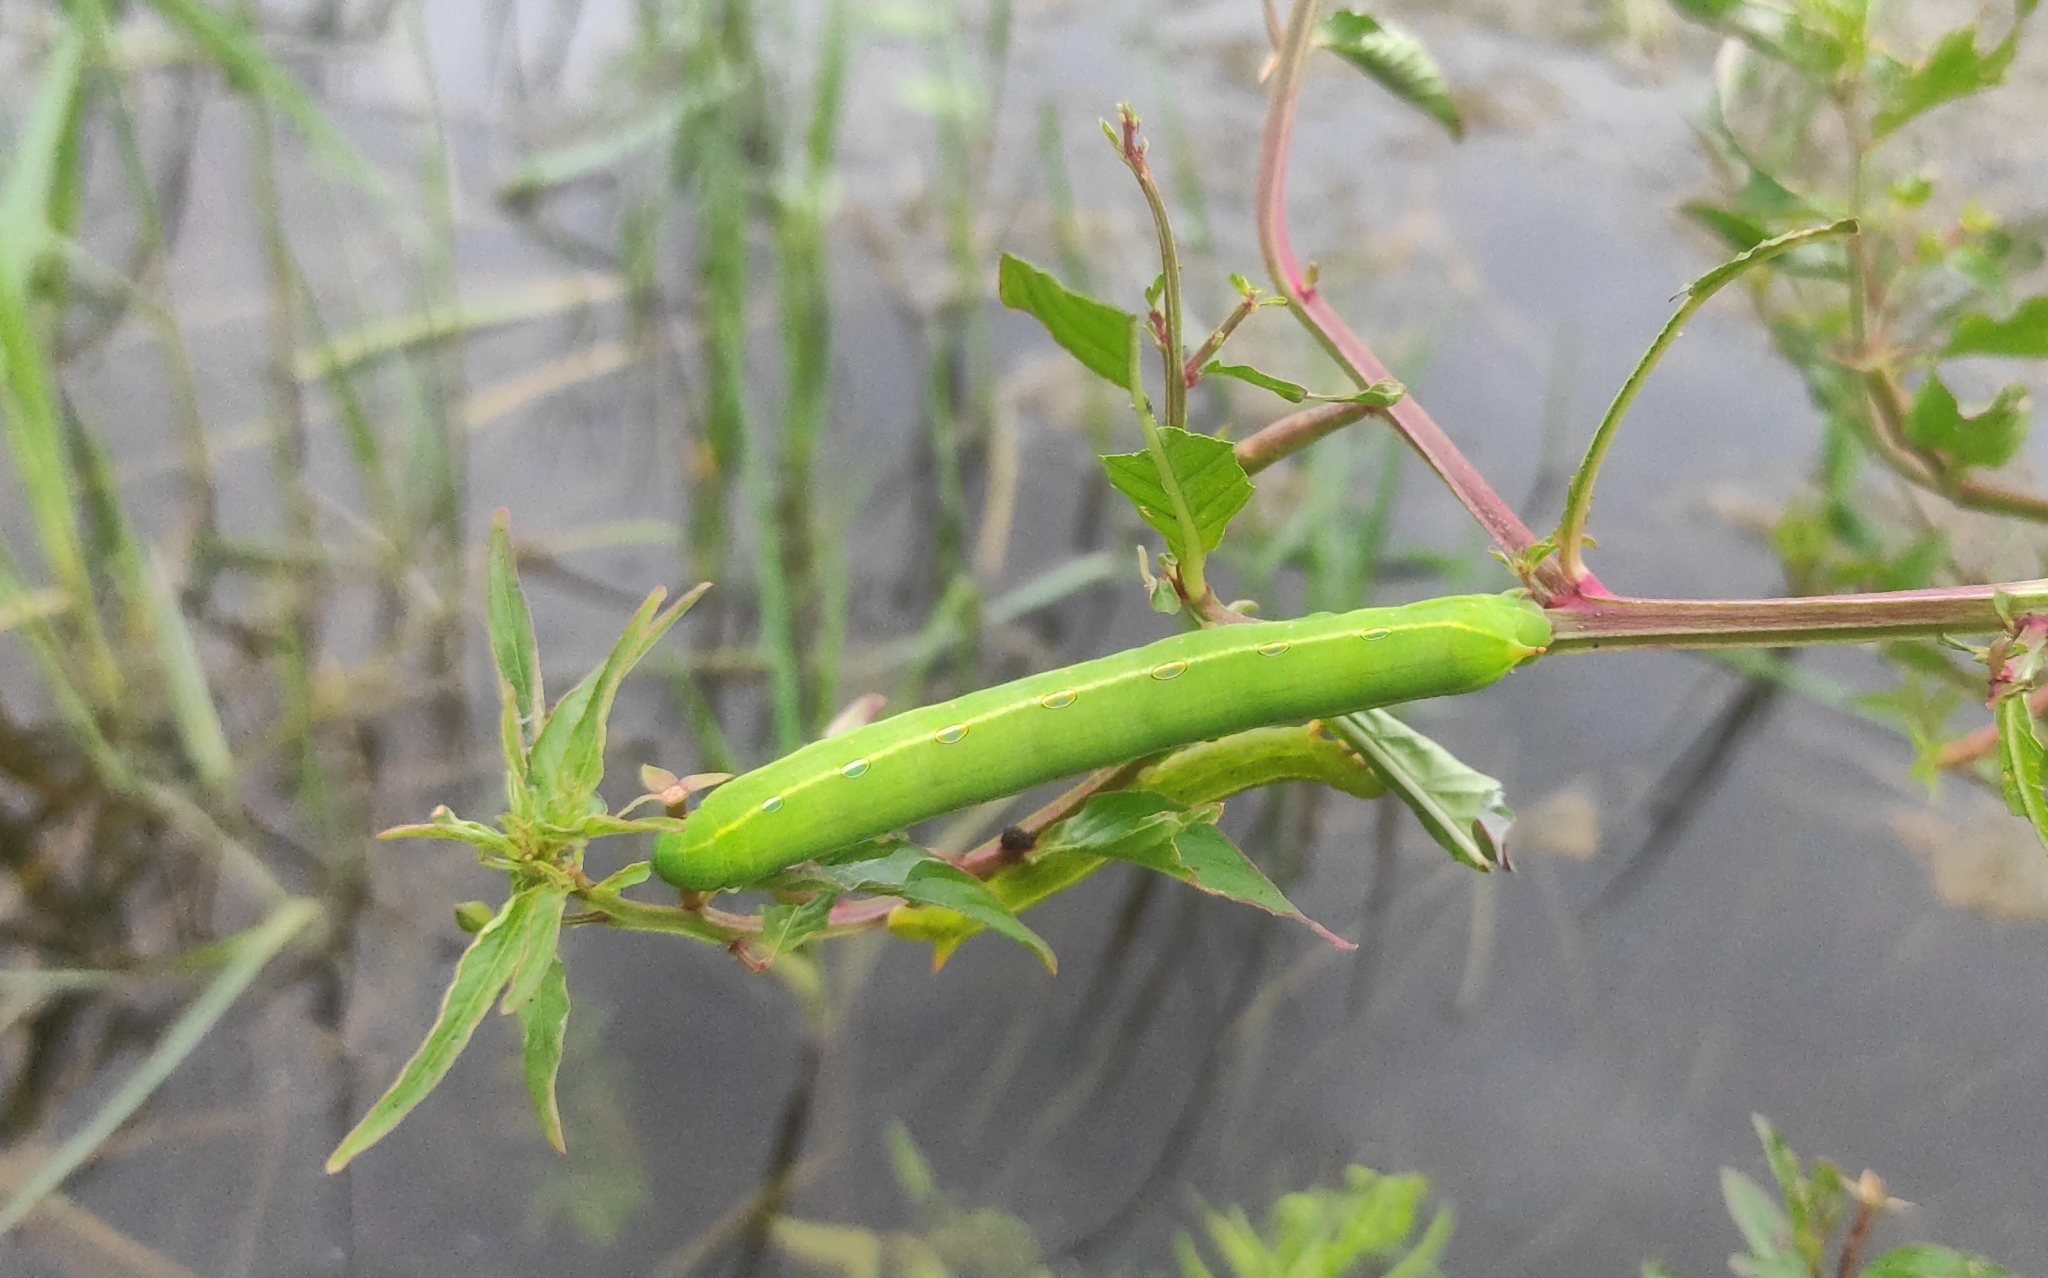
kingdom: Animalia
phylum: Arthropoda
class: Insecta
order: Lepidoptera
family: Sphingidae
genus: Theretra
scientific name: Theretra silhetensis
